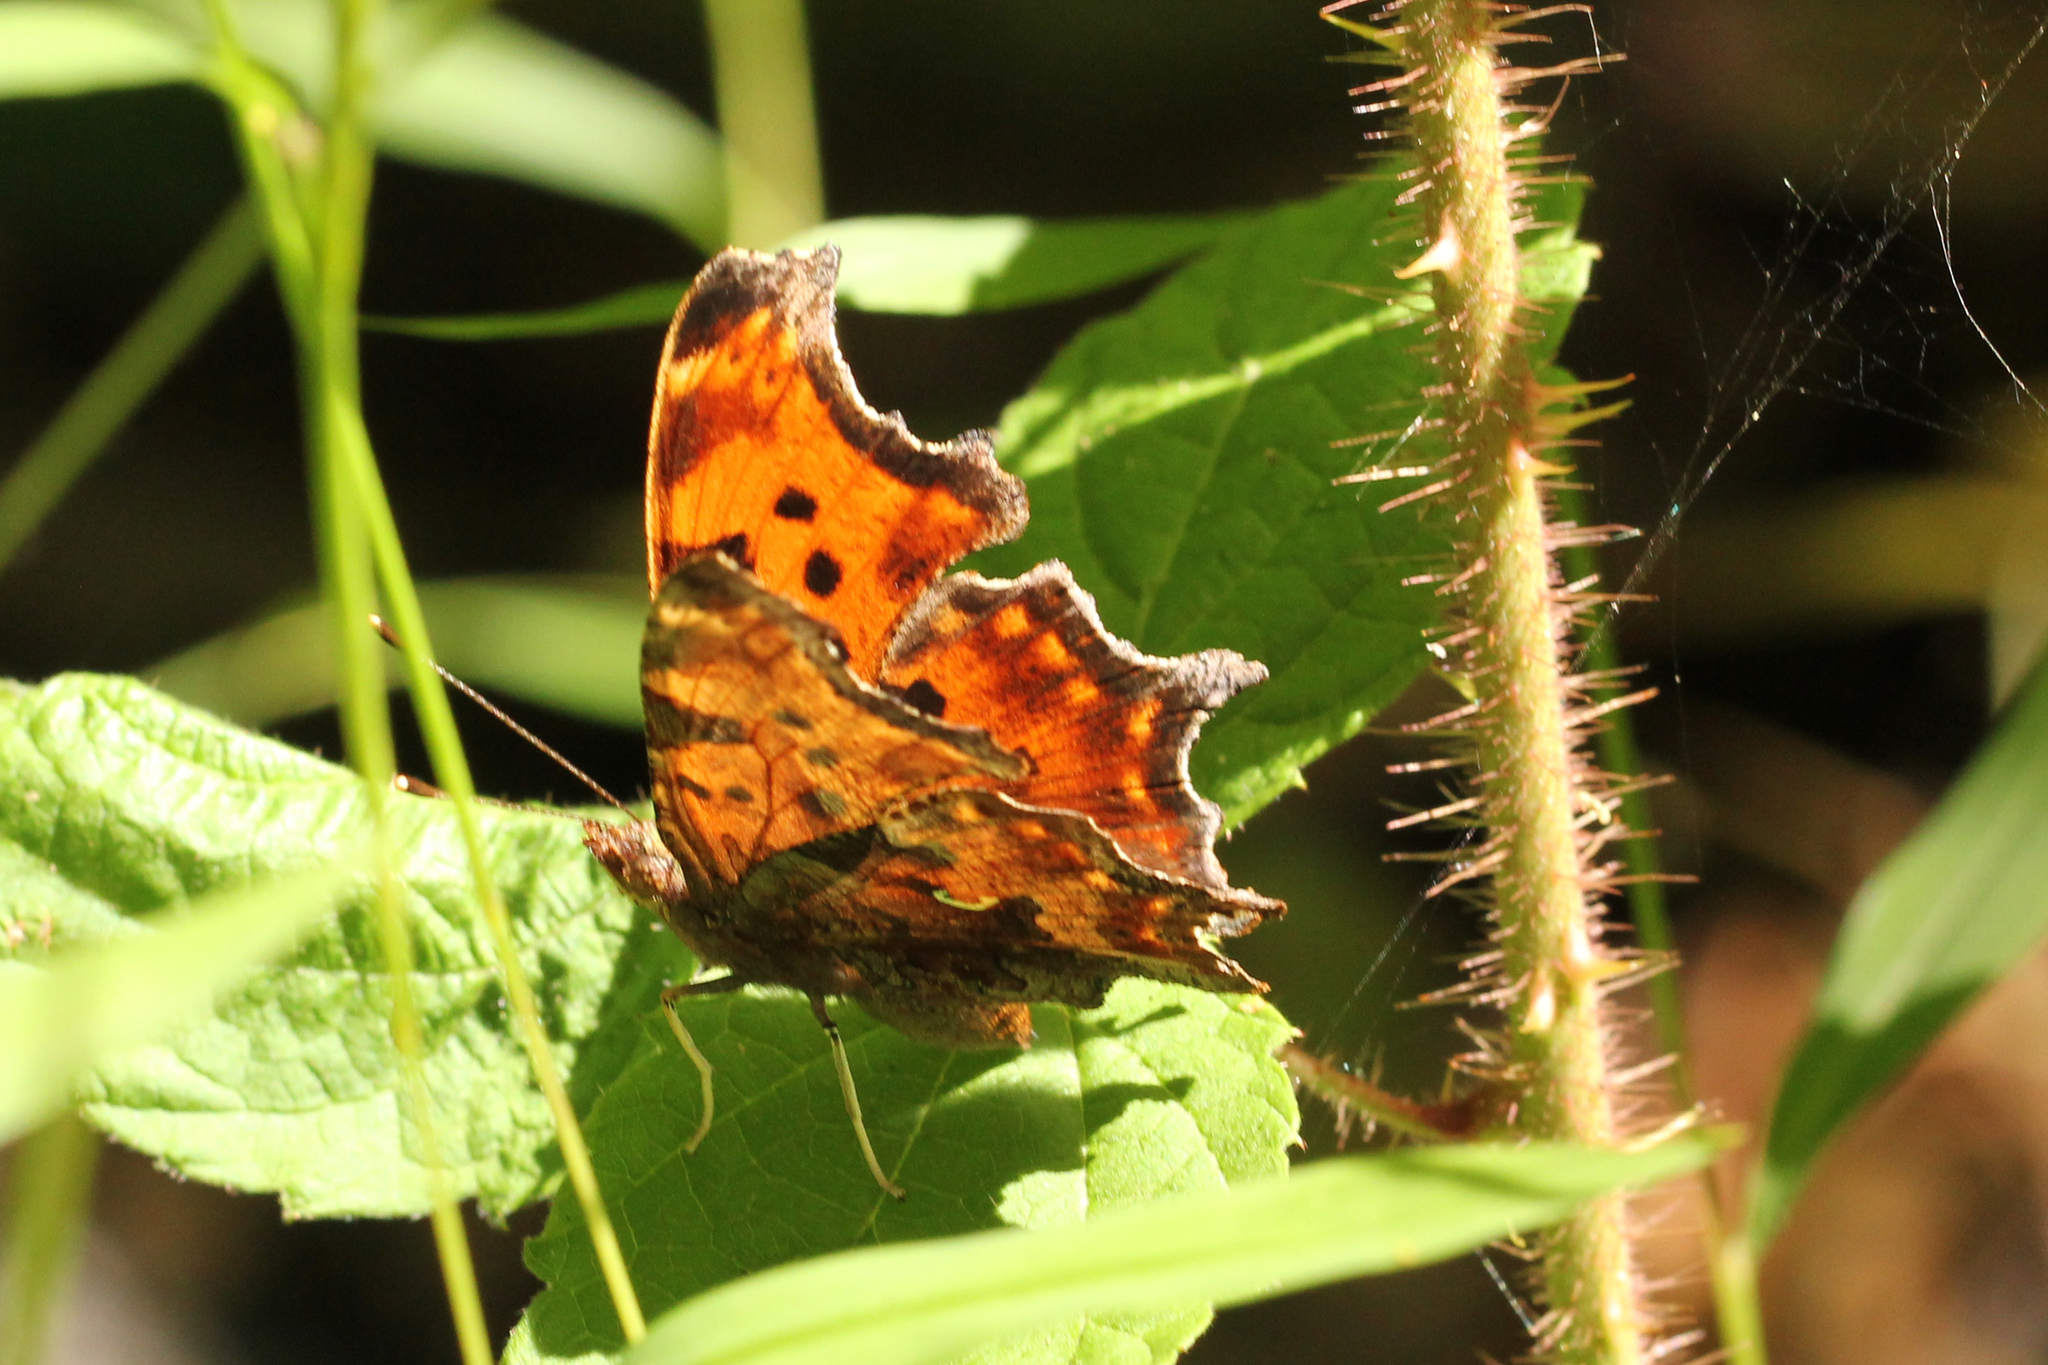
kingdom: Animalia
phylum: Arthropoda
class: Insecta
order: Lepidoptera
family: Nymphalidae
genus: Polygonia
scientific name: Polygonia comma
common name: Eastern comma
